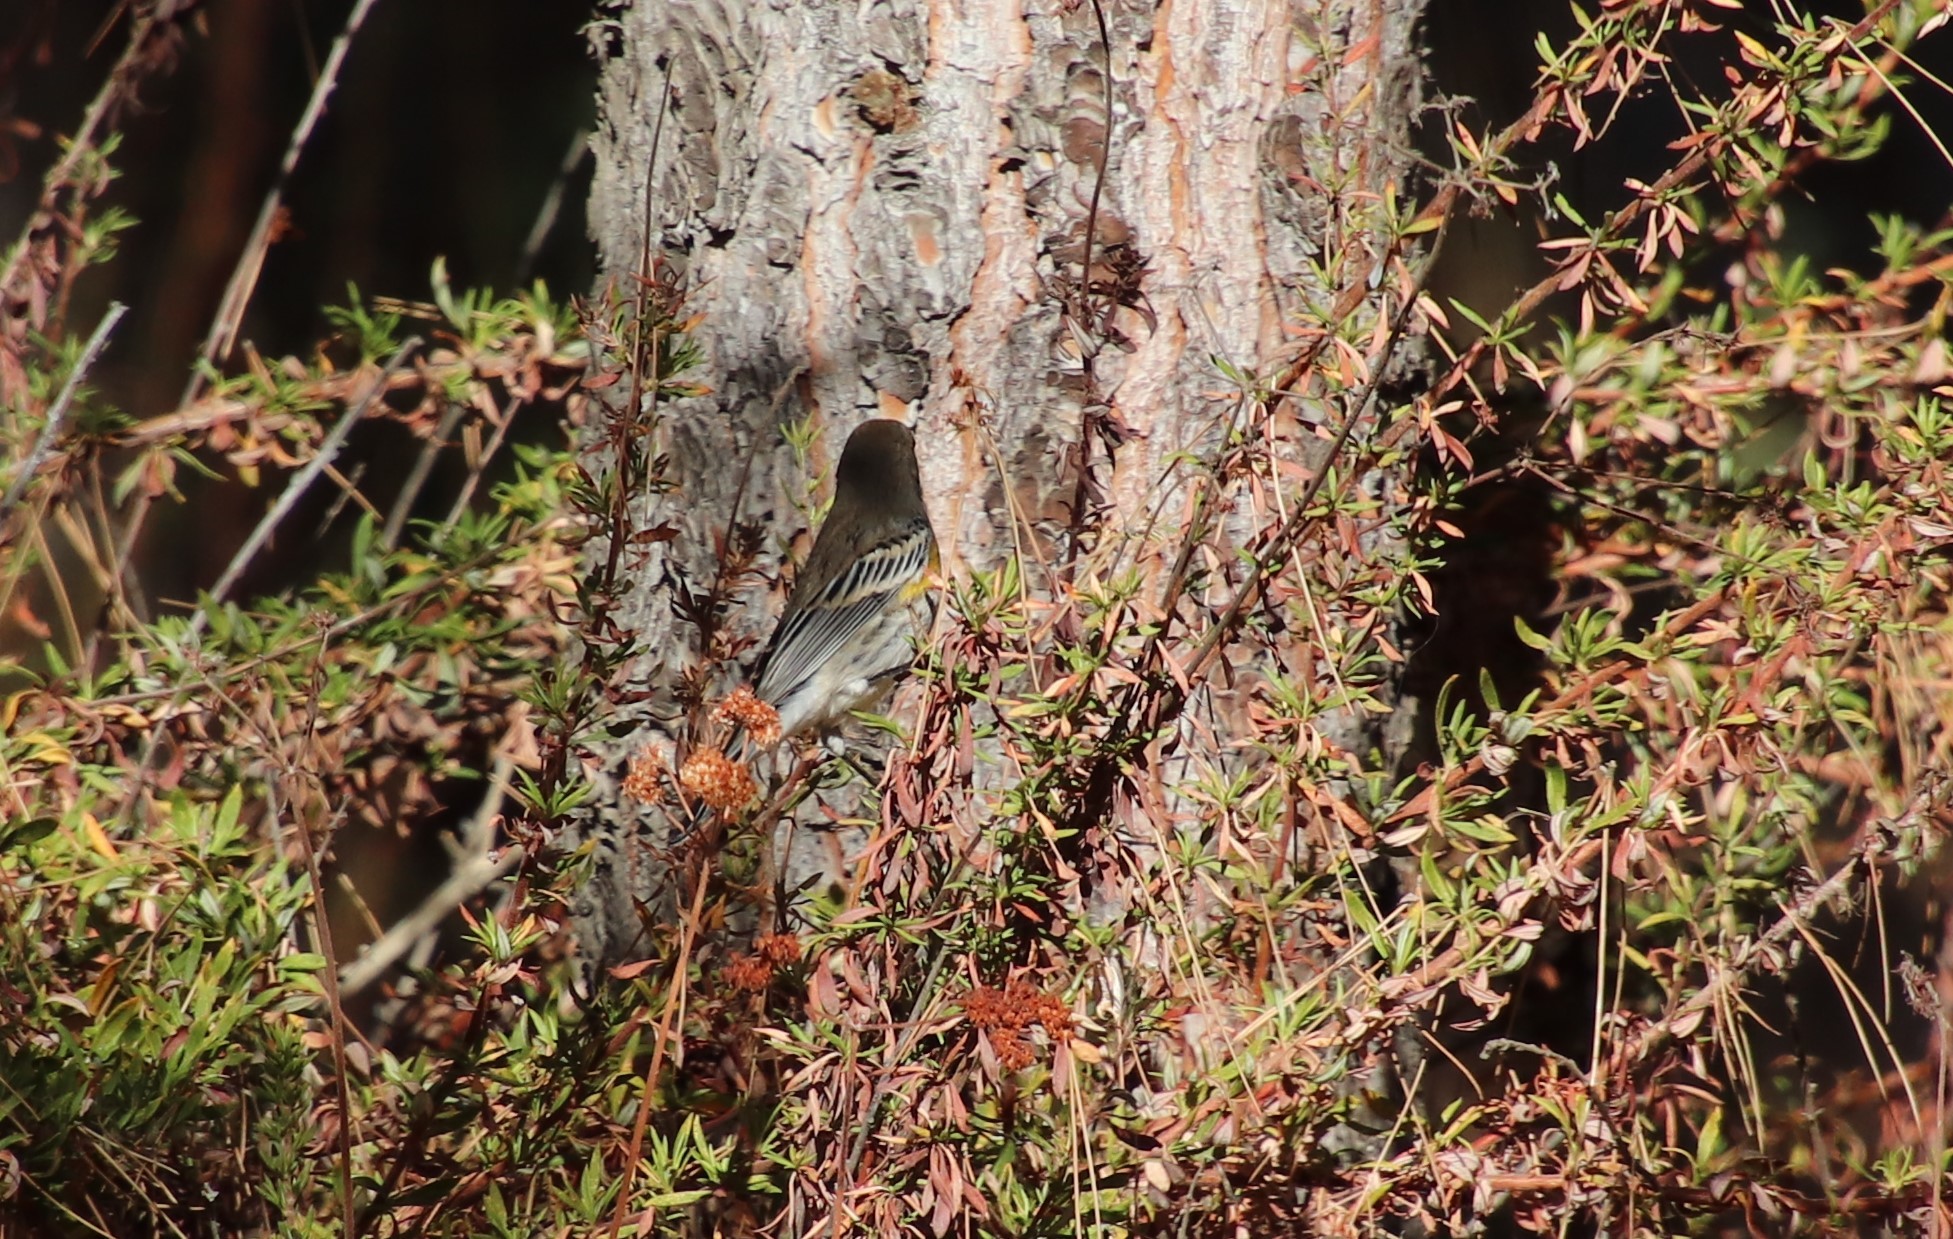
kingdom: Animalia
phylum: Chordata
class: Aves
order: Passeriformes
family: Parulidae
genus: Setophaga
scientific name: Setophaga coronata
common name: Myrtle warbler
